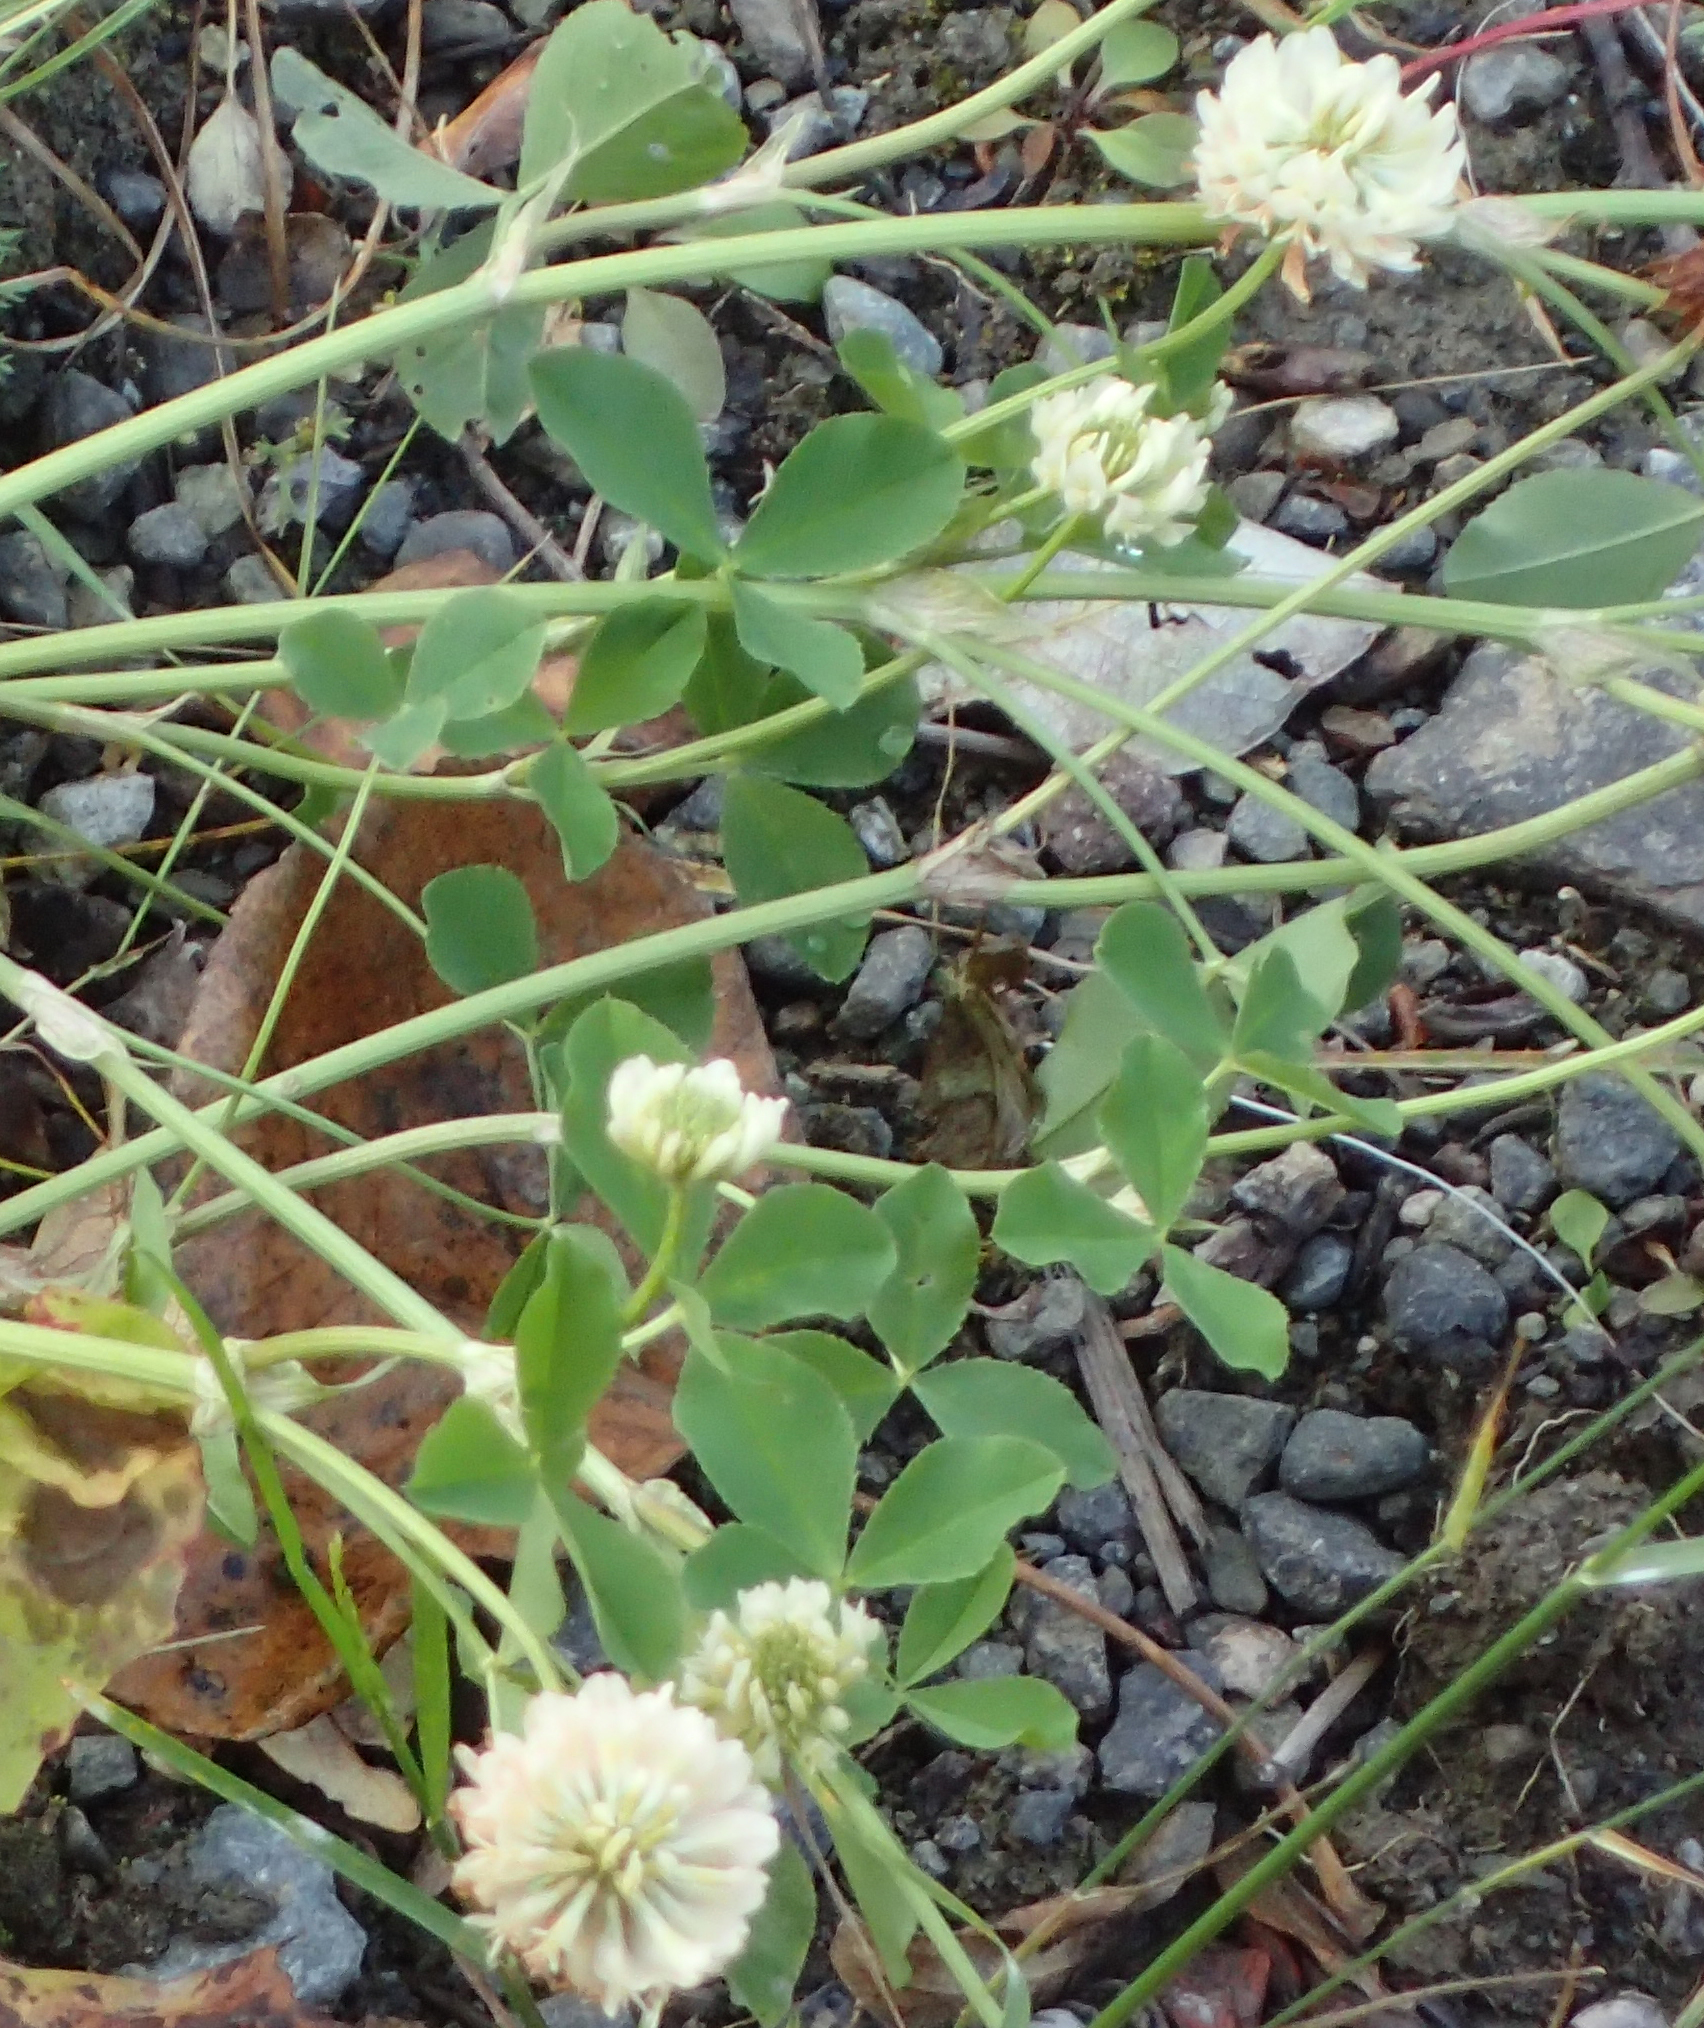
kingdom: Plantae
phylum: Tracheophyta
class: Magnoliopsida
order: Fabales
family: Fabaceae
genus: Trifolium
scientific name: Trifolium repens
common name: White clover
